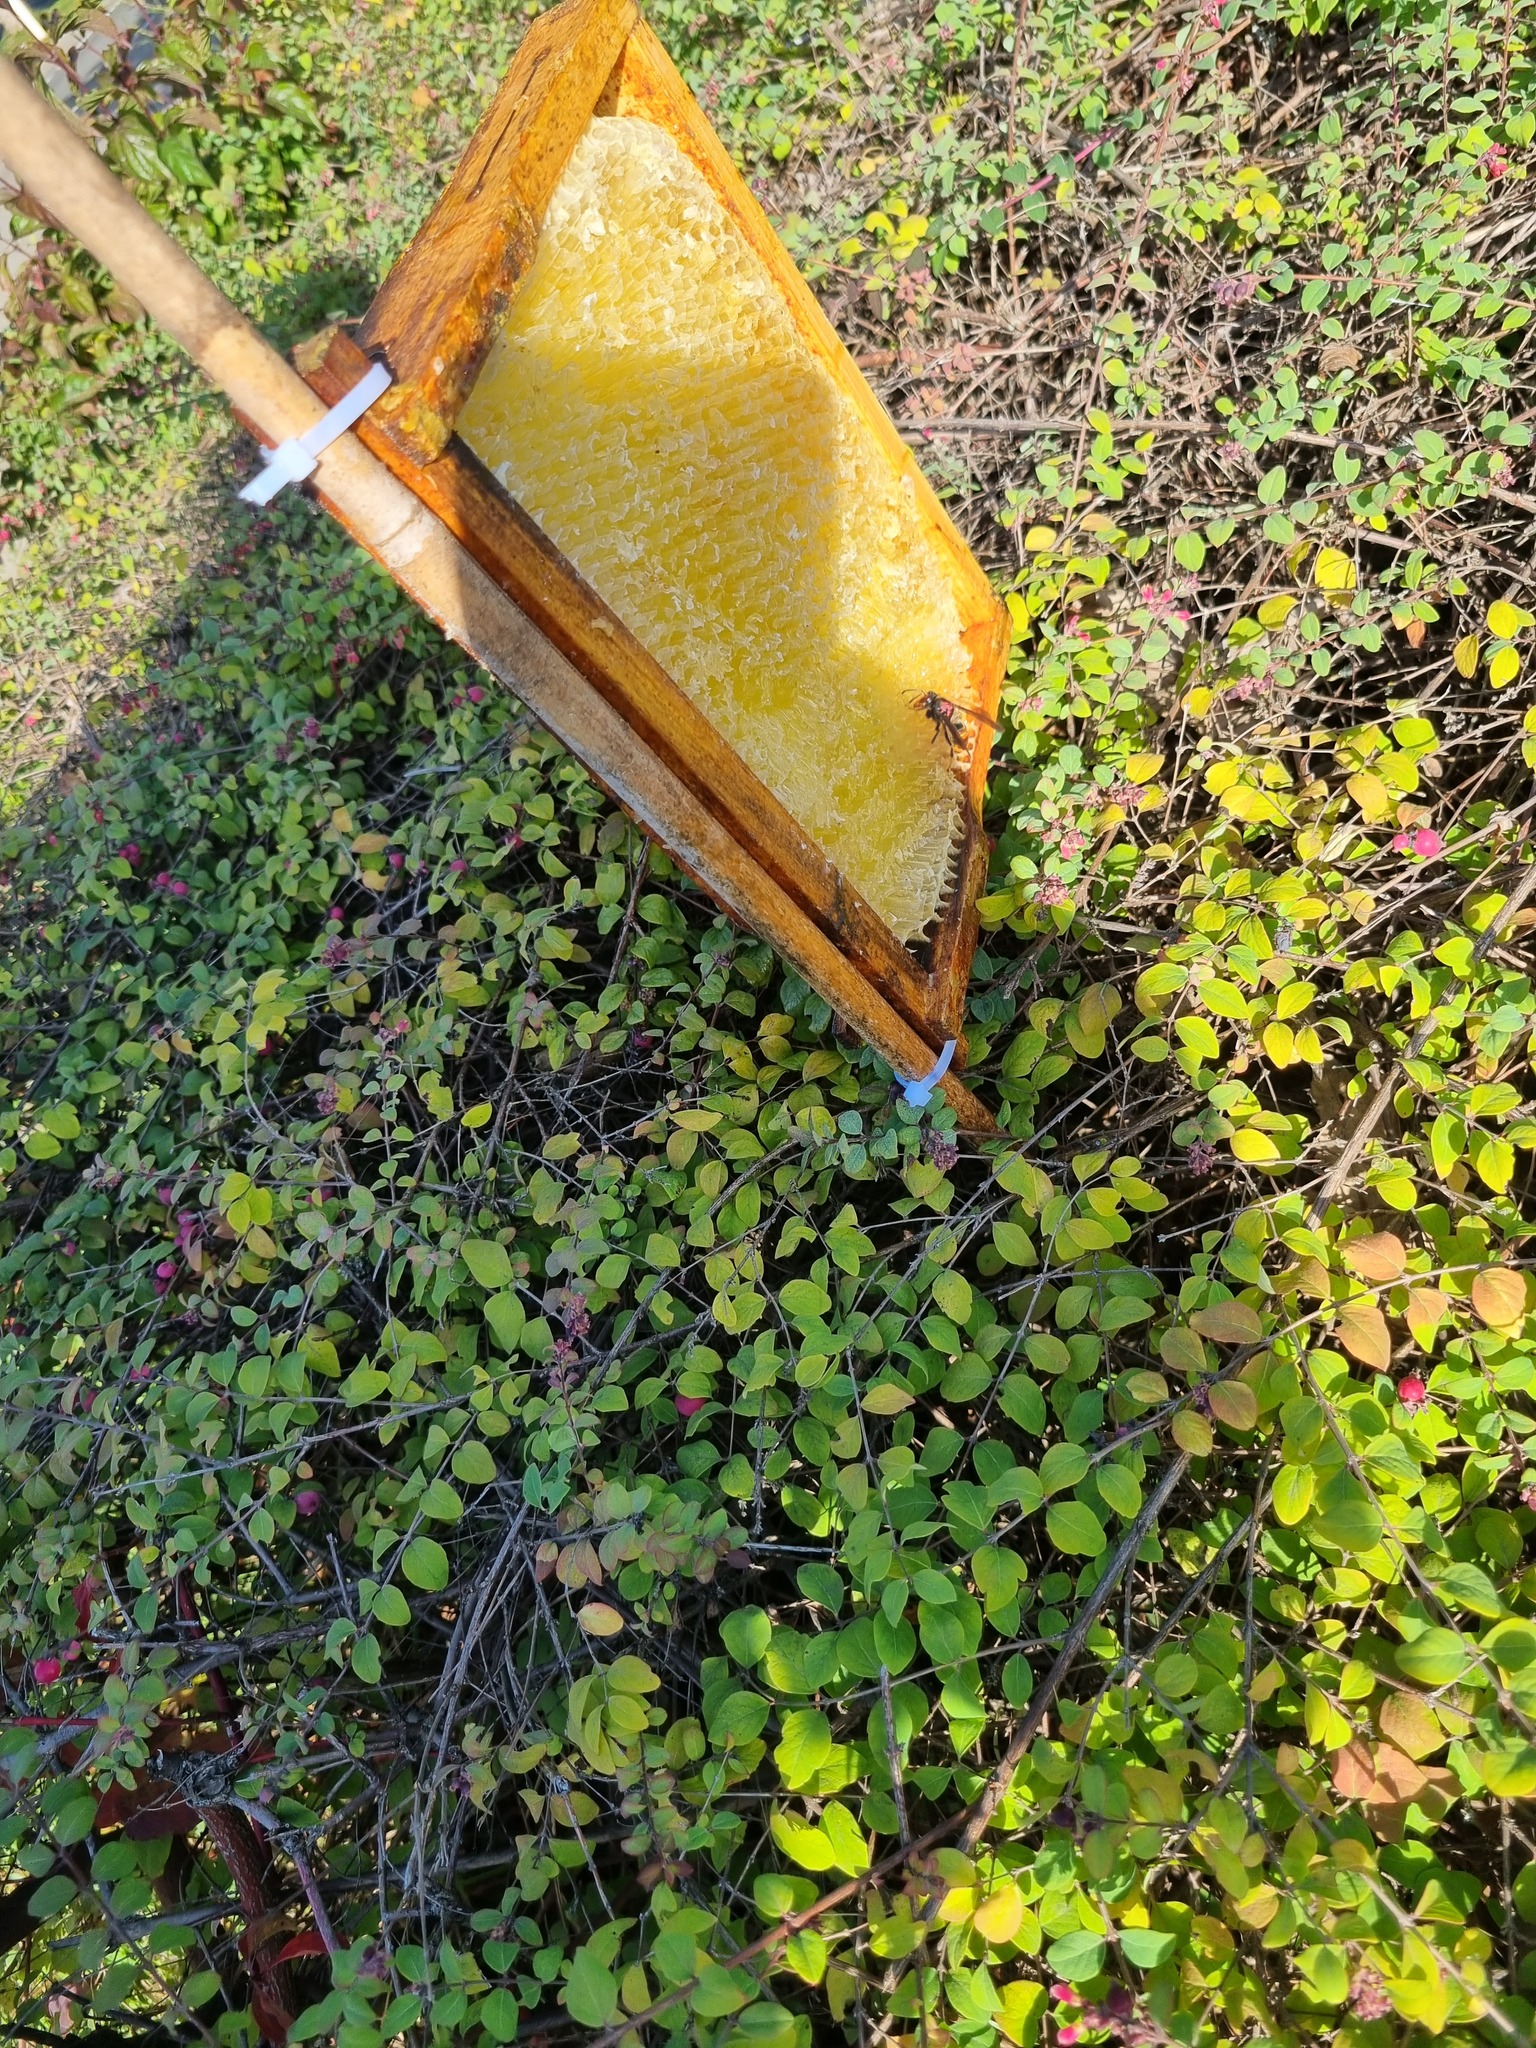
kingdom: Animalia
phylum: Arthropoda
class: Insecta
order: Hymenoptera
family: Vespidae
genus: Vespa
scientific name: Vespa velutina
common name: Asian hornet
